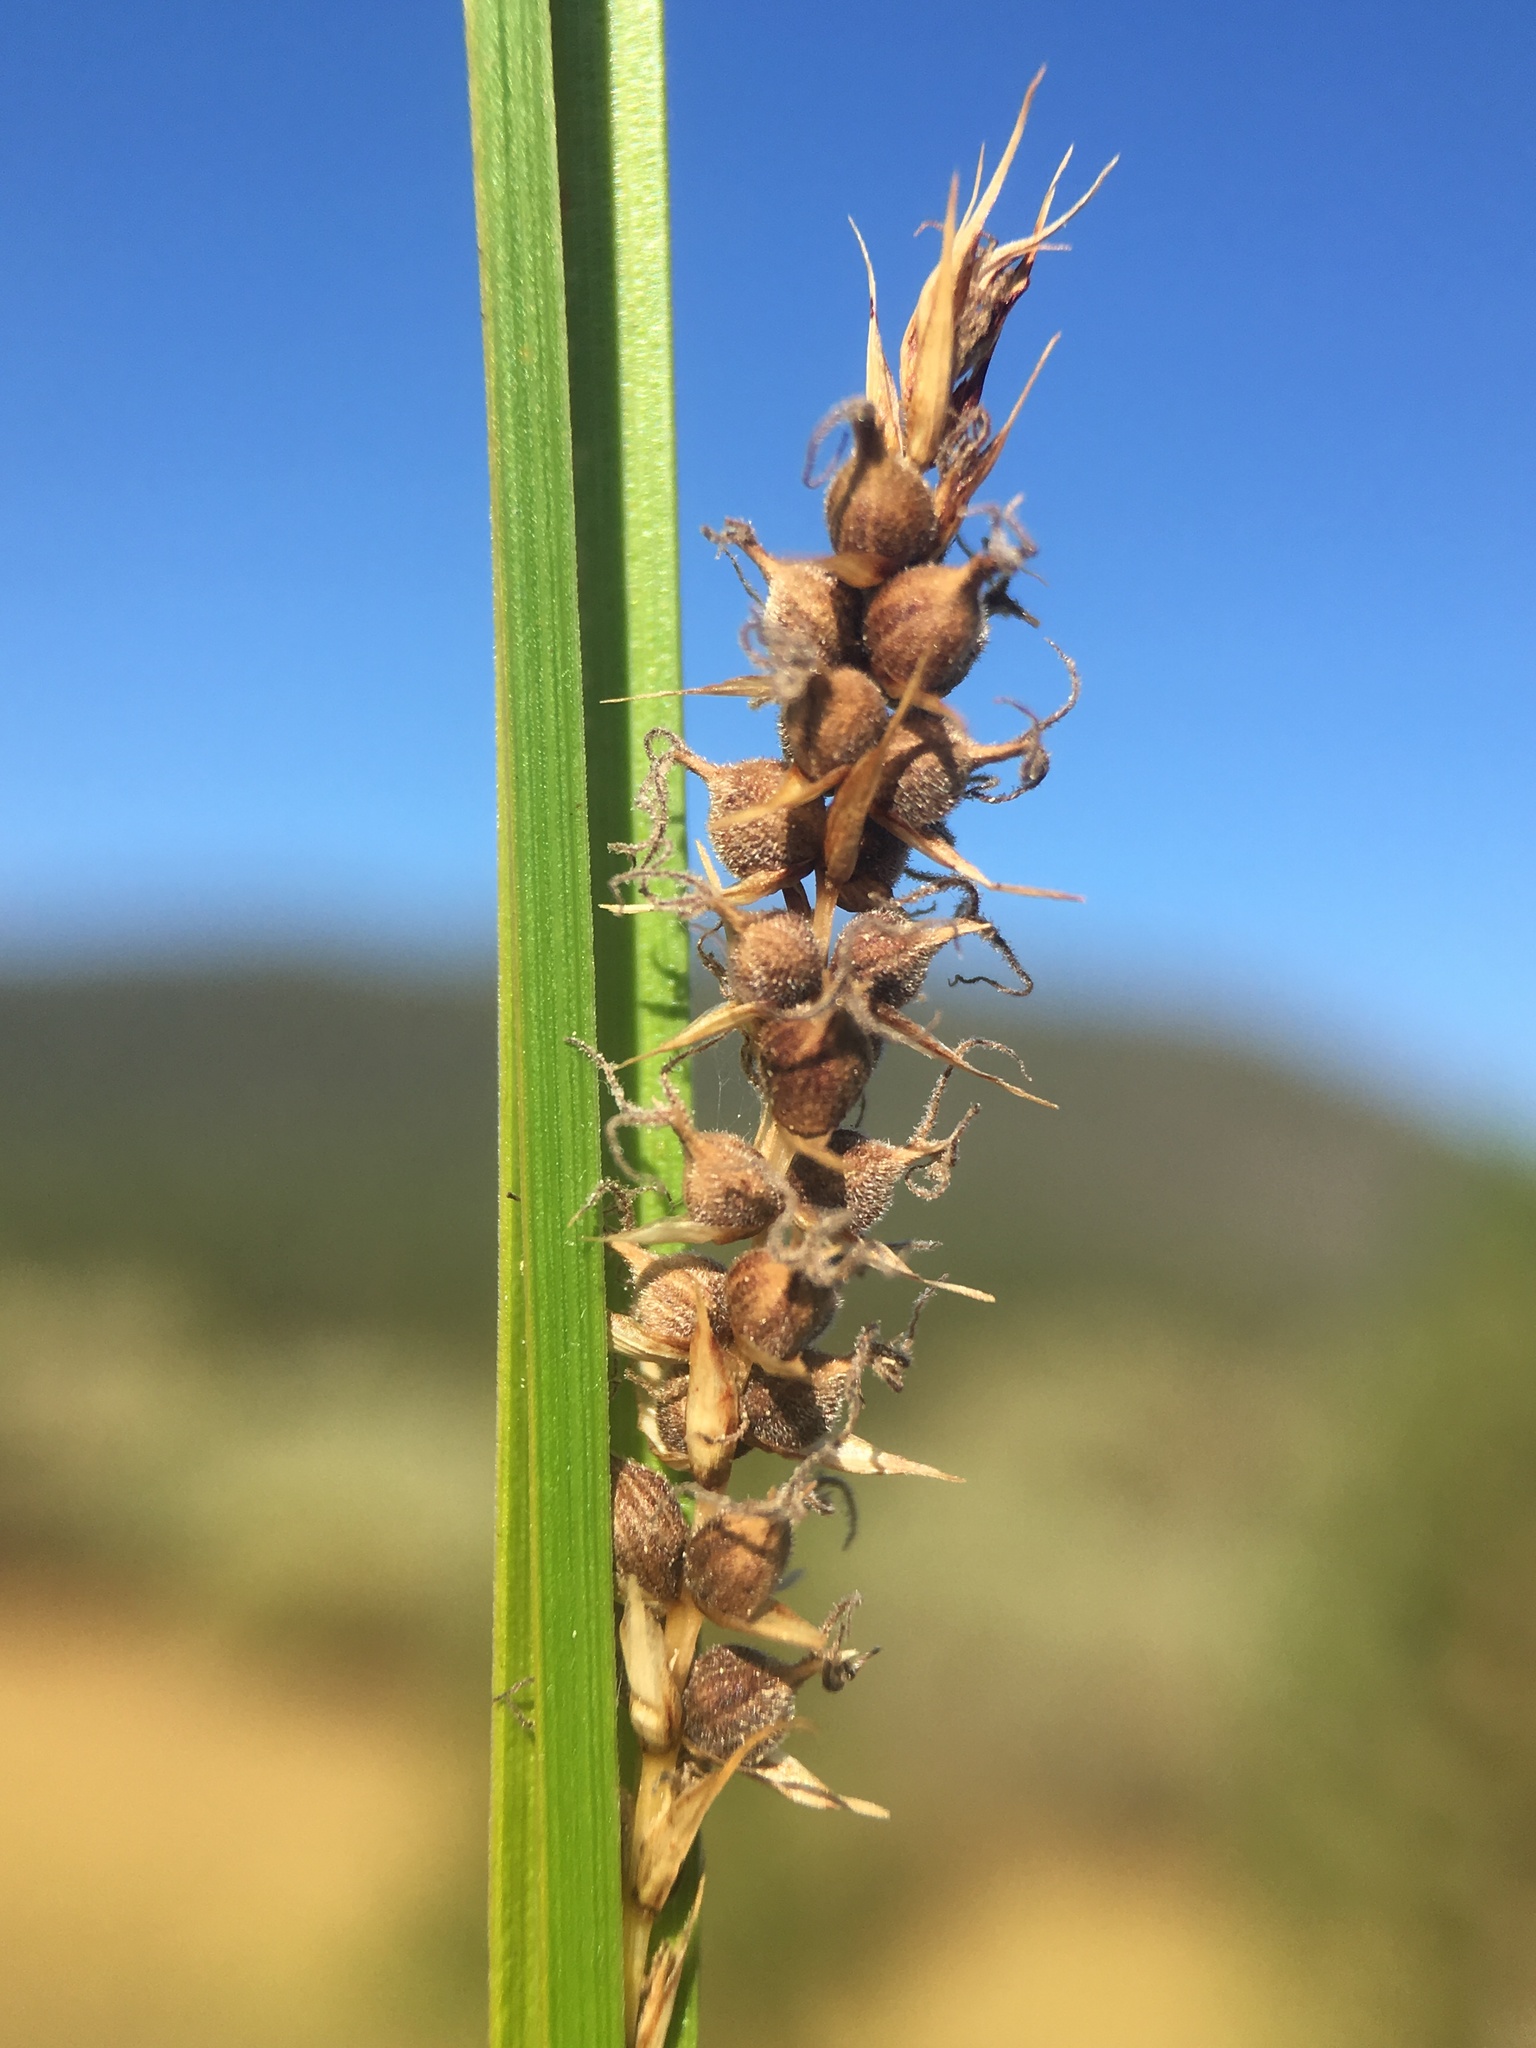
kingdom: Plantae
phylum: Tracheophyta
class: Liliopsida
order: Poales
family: Cyperaceae
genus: Carex
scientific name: Carex pellita
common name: Woolly sedge
